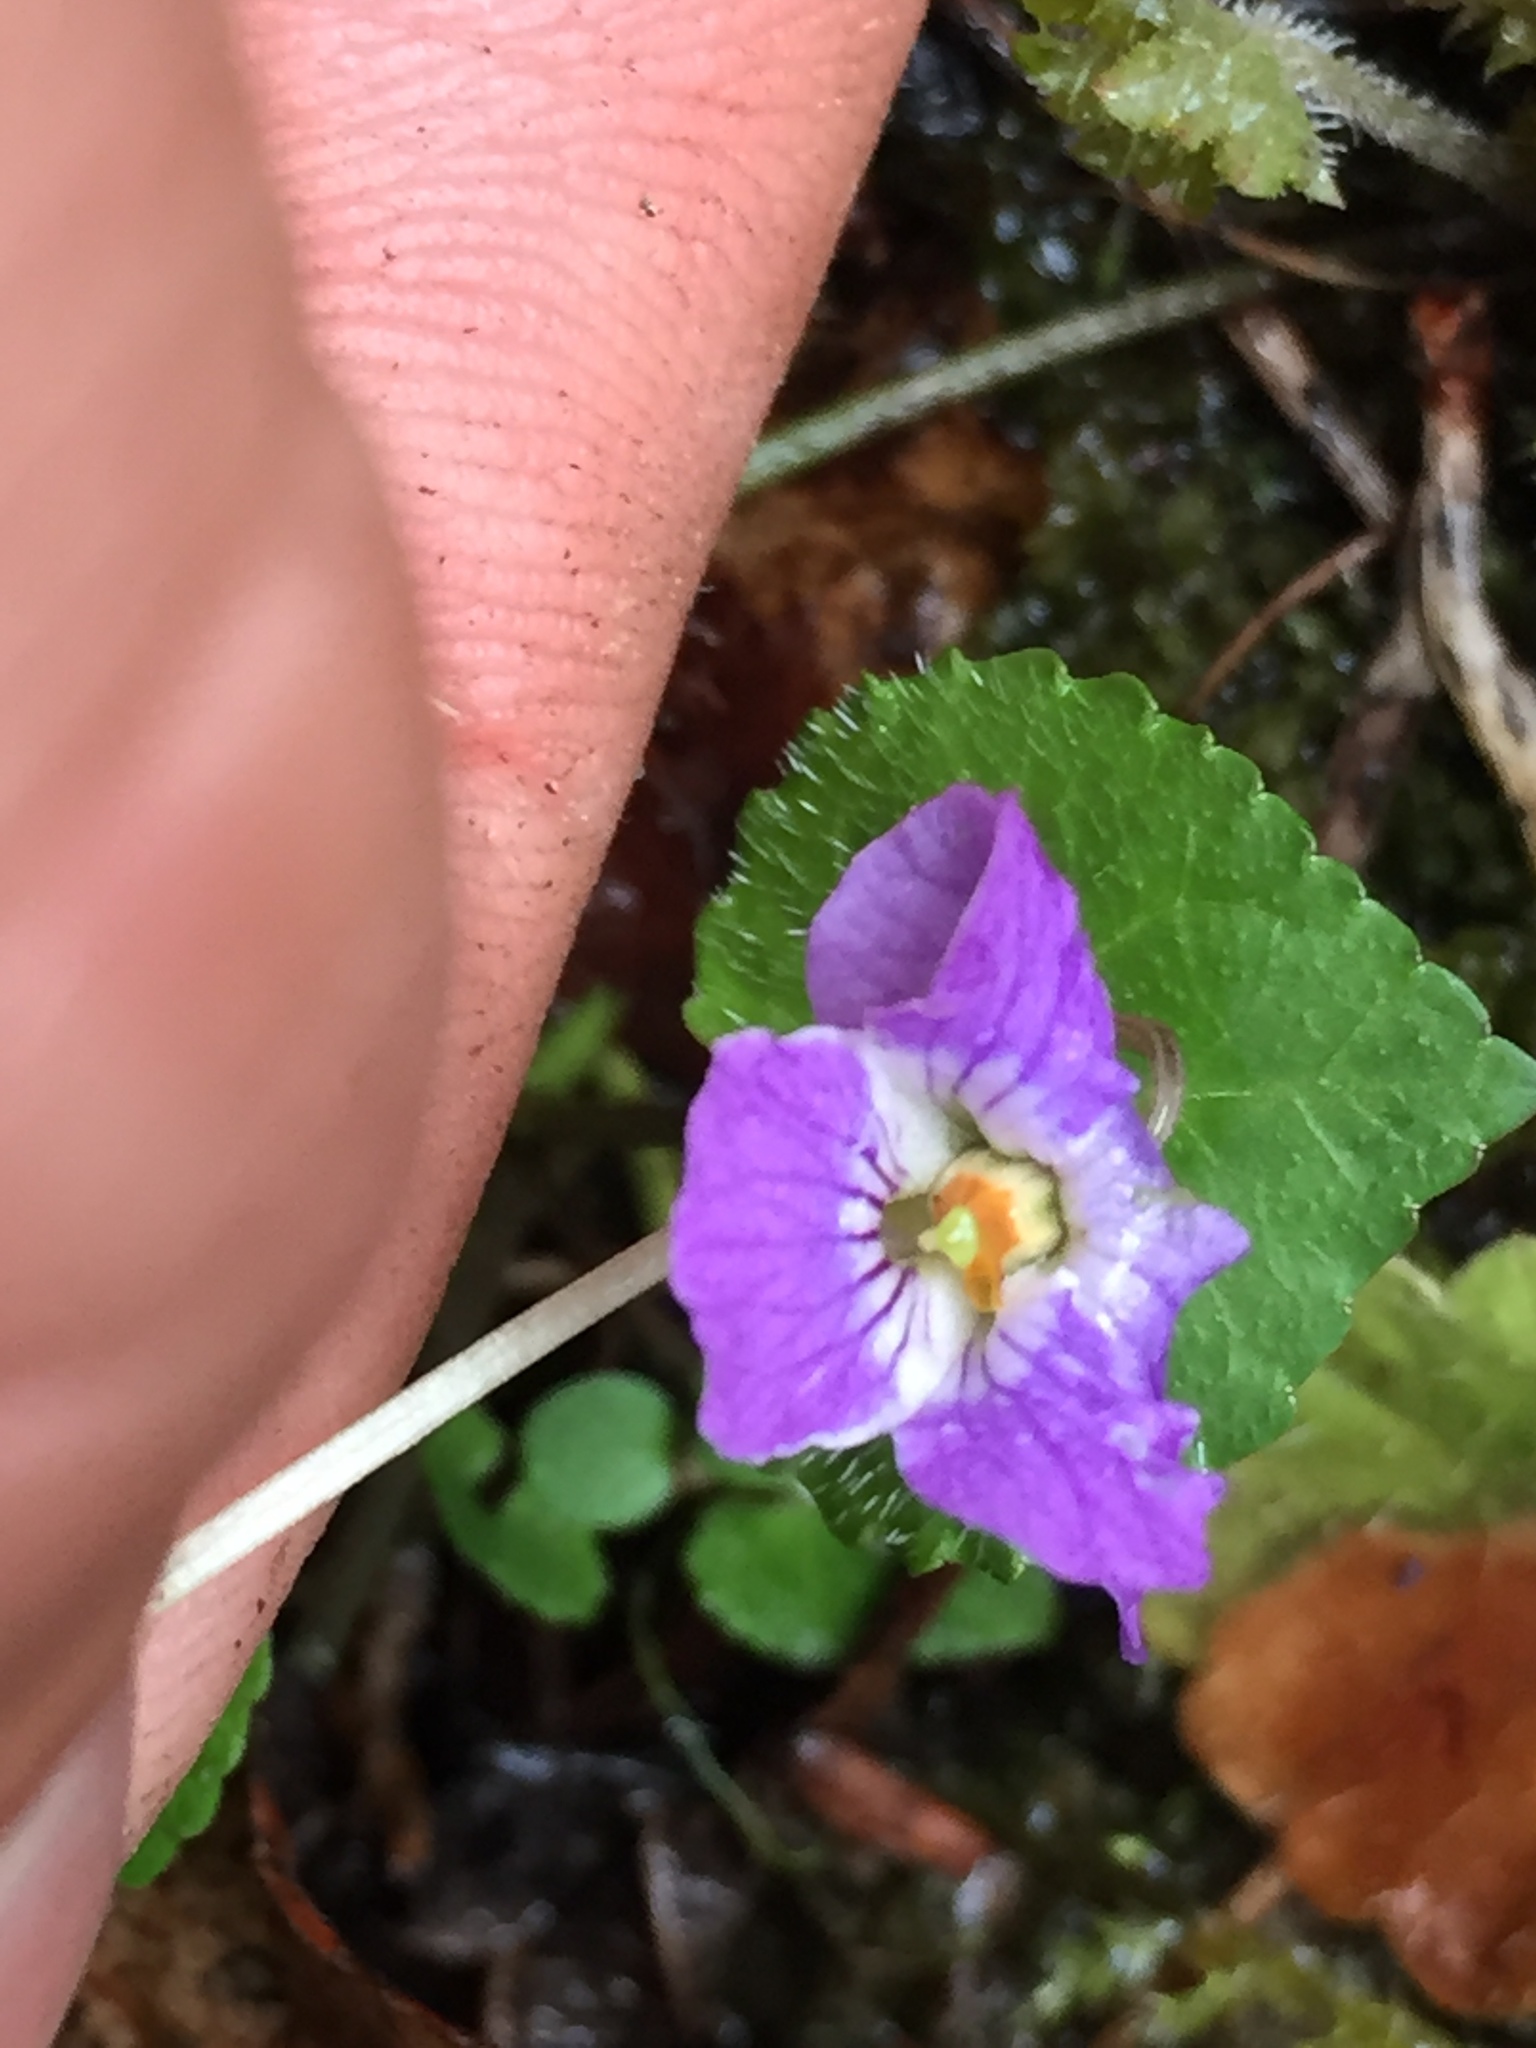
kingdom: Plantae
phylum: Tracheophyta
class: Magnoliopsida
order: Malpighiales
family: Violaceae
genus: Viola
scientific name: Viola selkirkii
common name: Selkirk's violet
